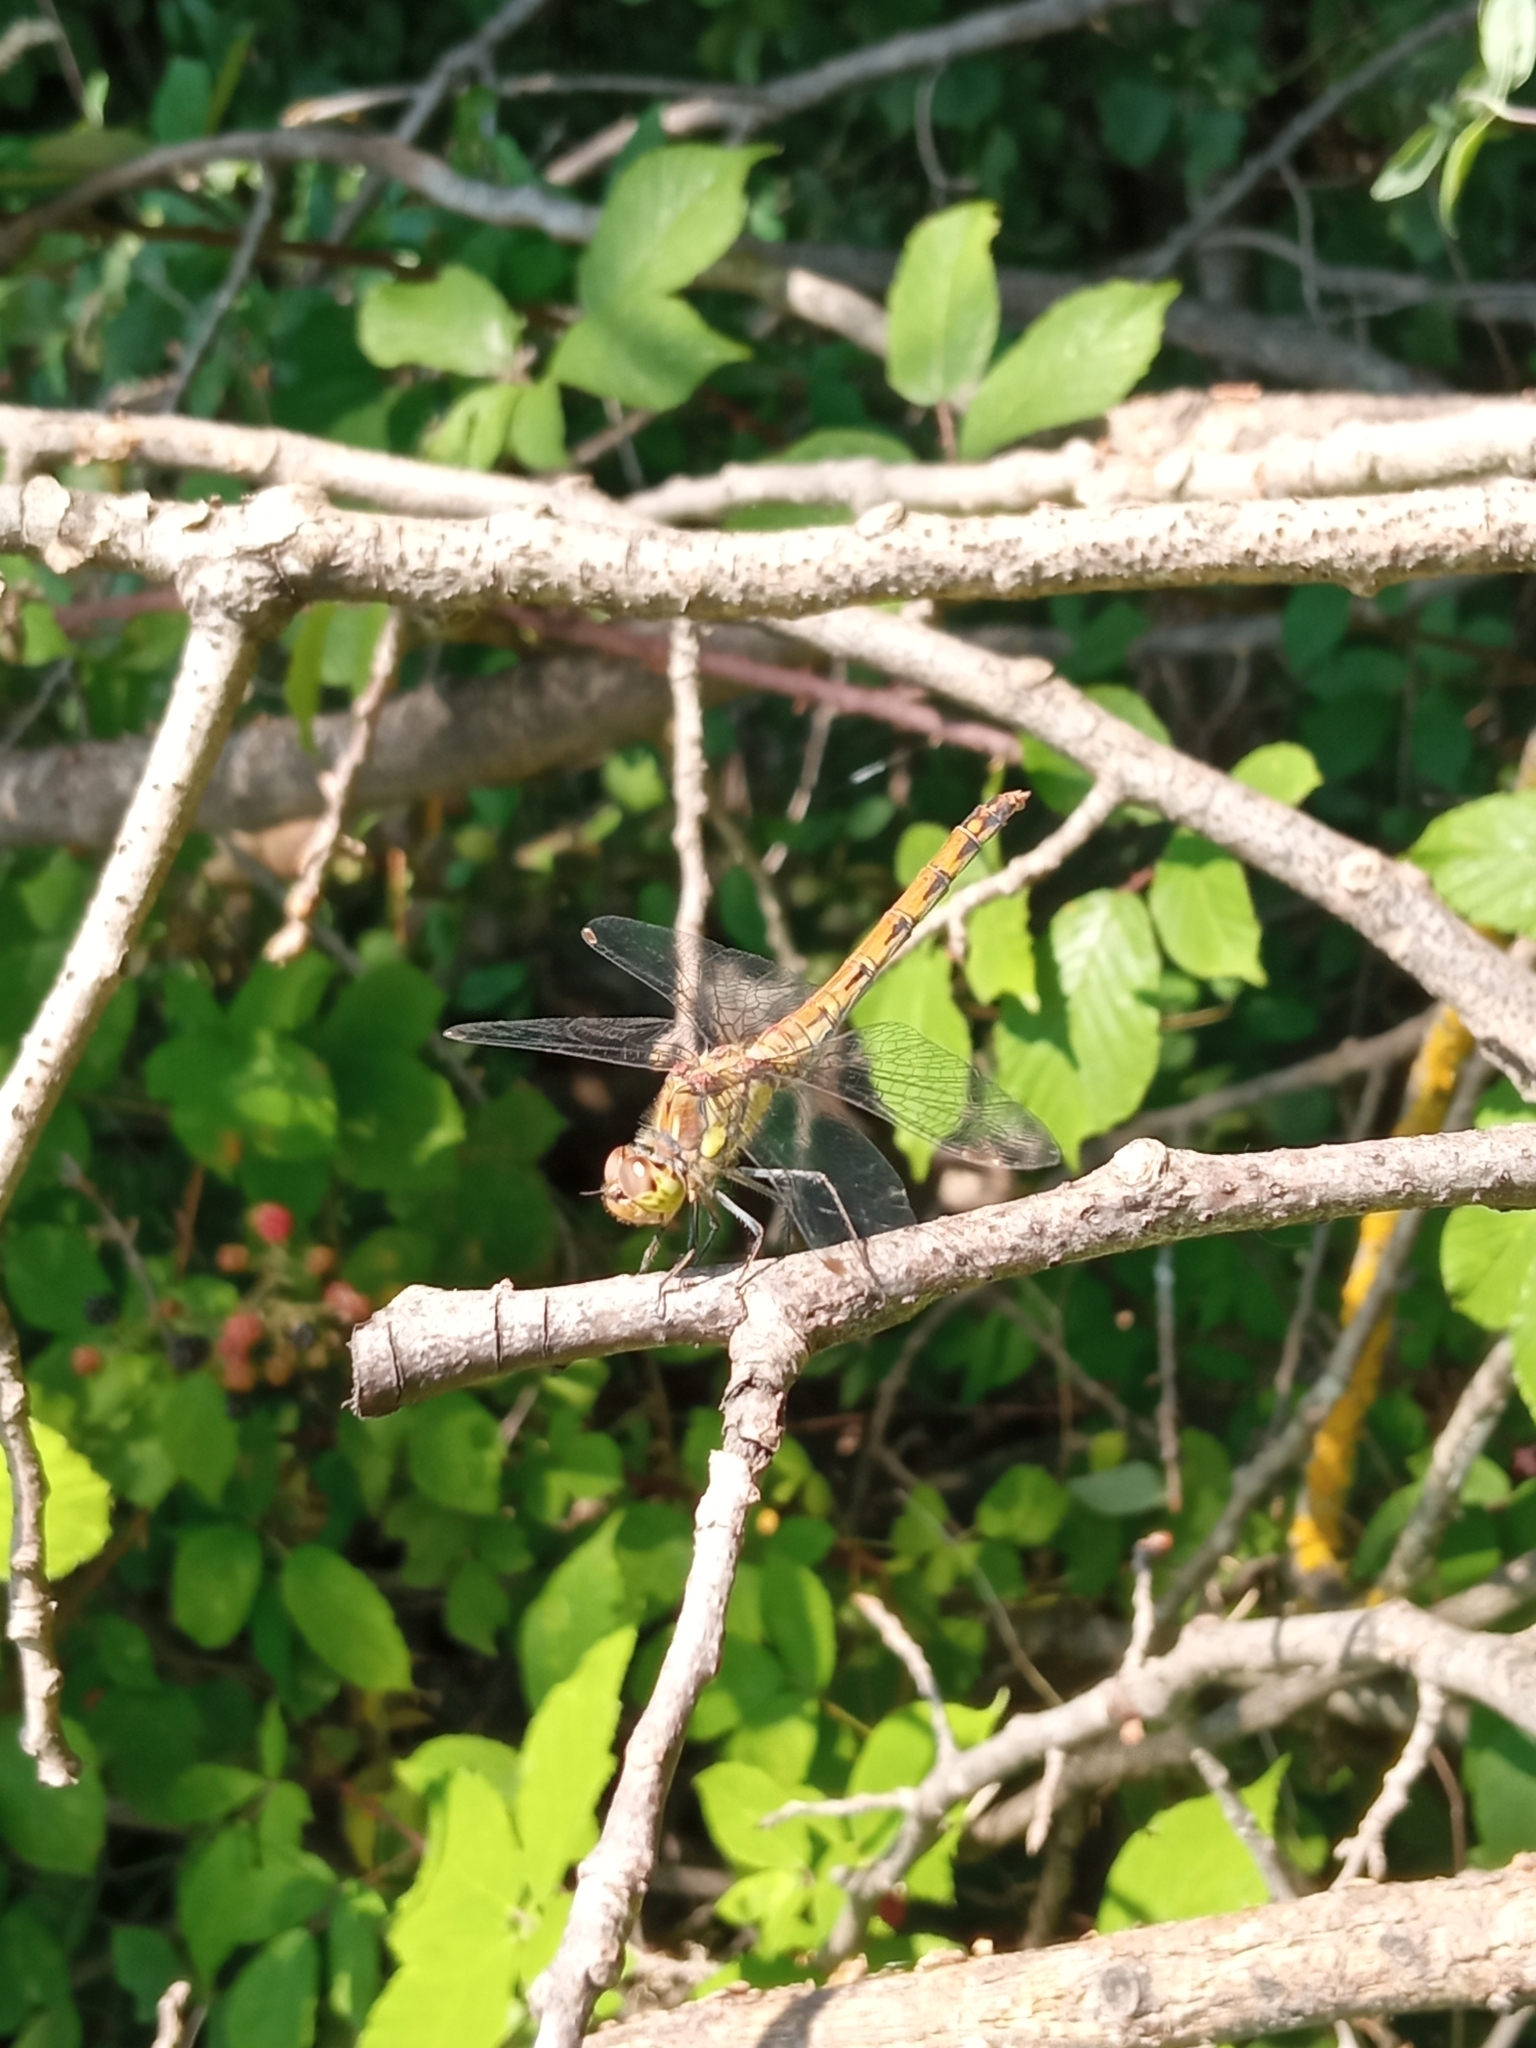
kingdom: Animalia
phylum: Arthropoda
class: Insecta
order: Odonata
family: Libellulidae
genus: Sympetrum
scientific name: Sympetrum striolatum
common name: Common darter
